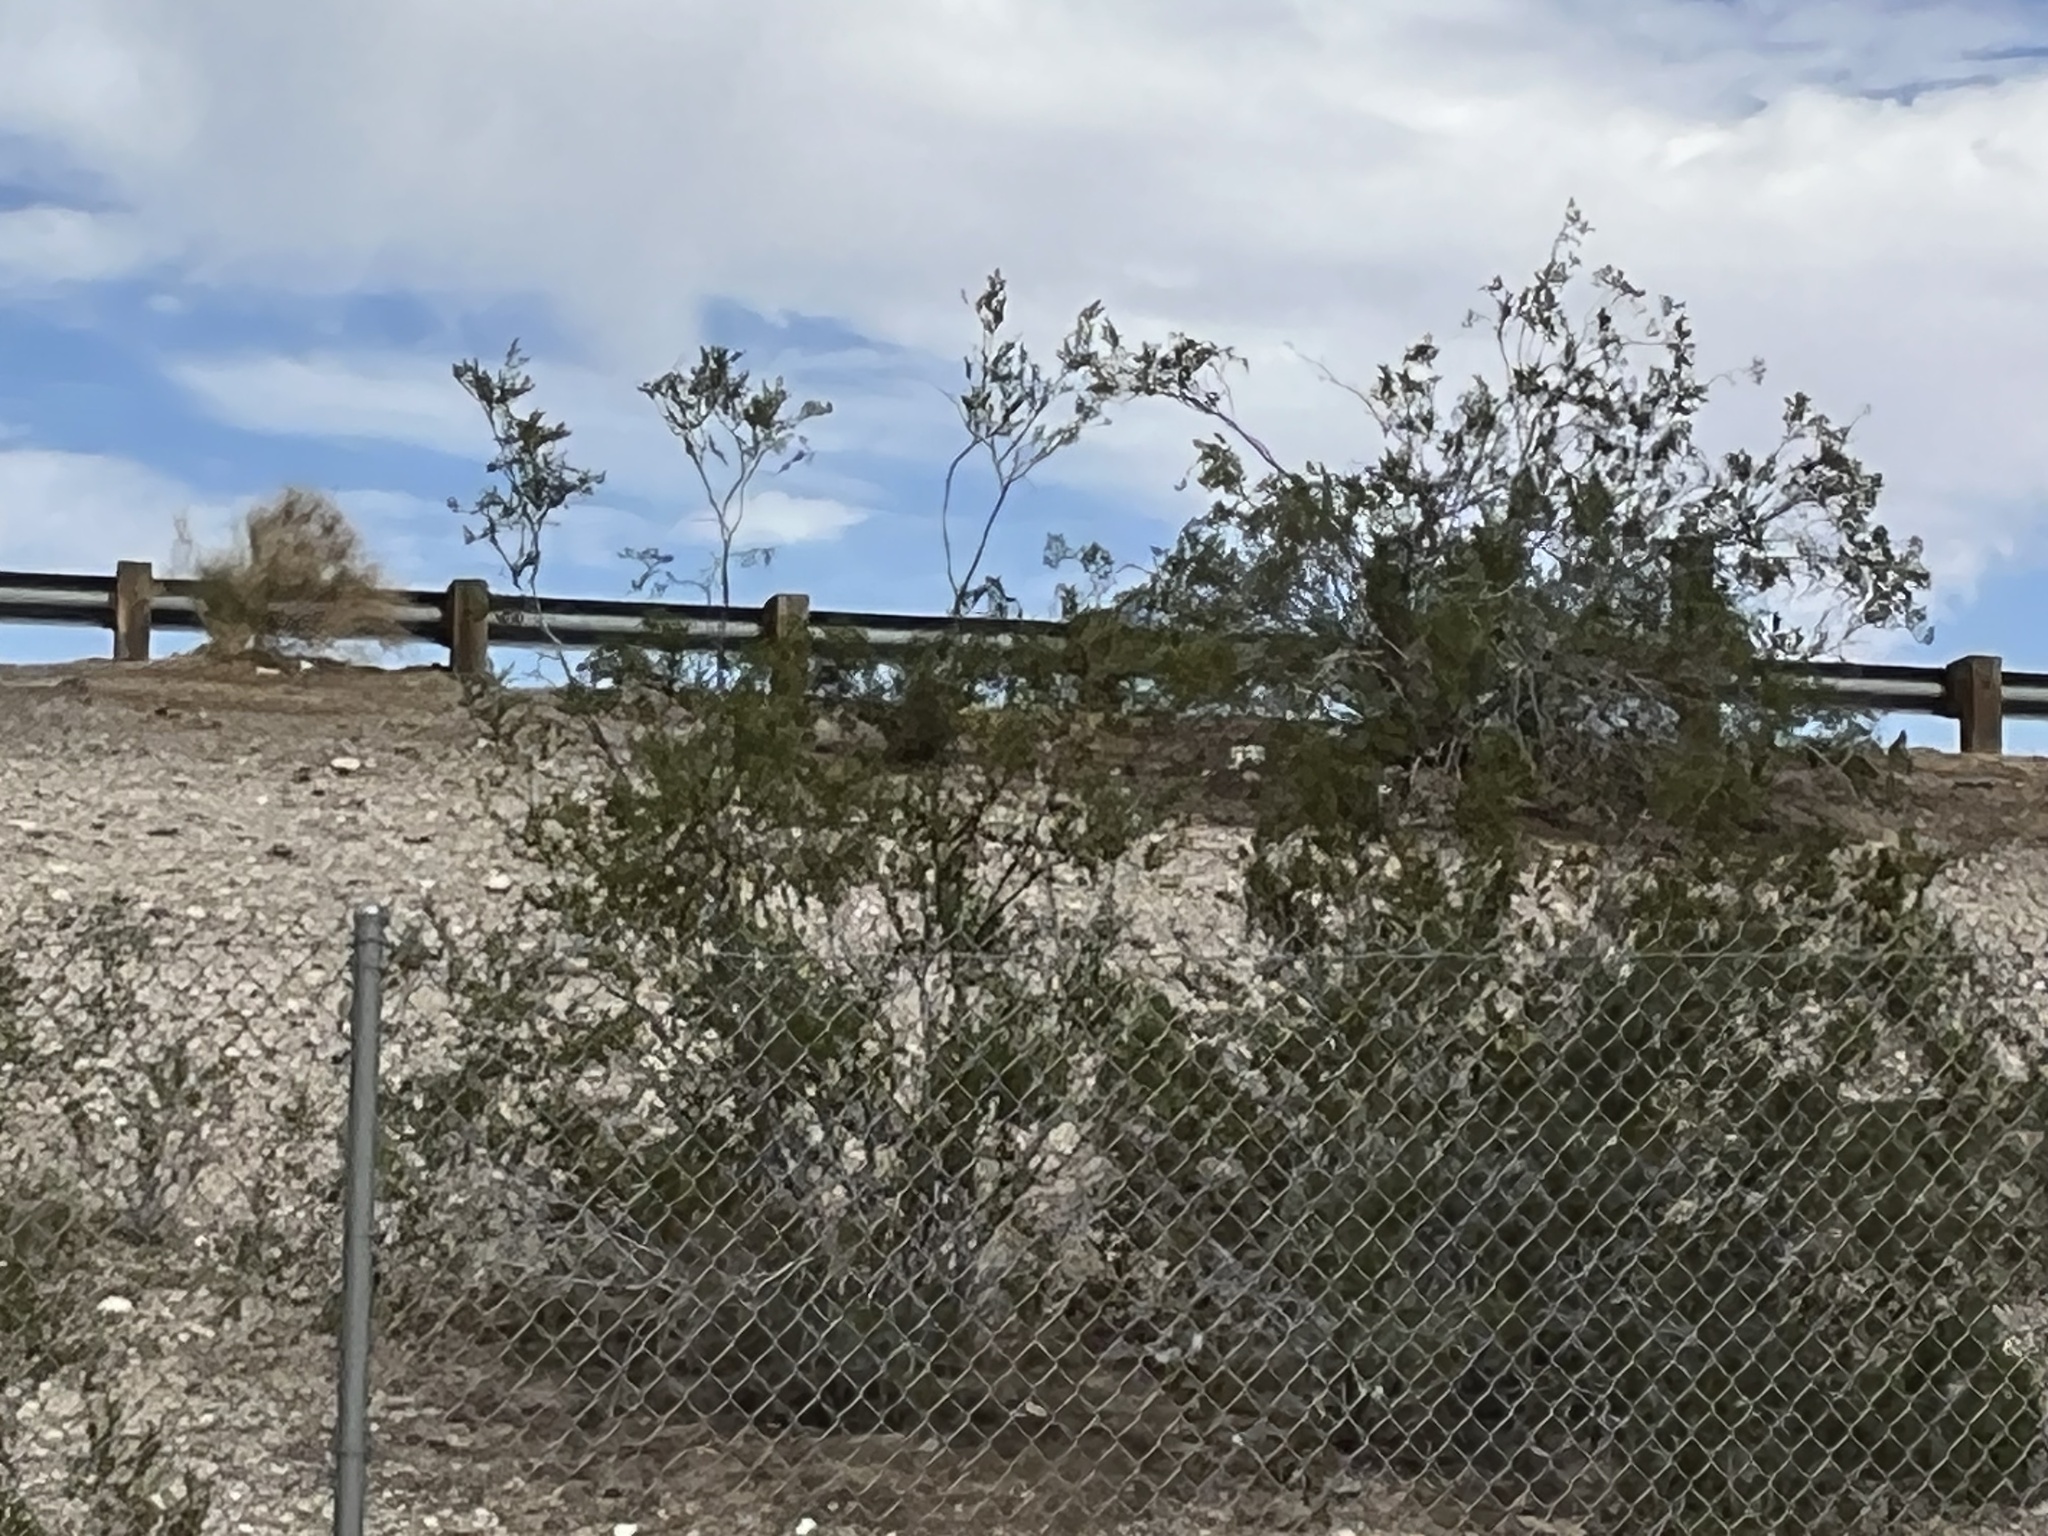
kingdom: Plantae
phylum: Tracheophyta
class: Magnoliopsida
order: Zygophyllales
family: Zygophyllaceae
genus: Larrea
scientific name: Larrea tridentata
